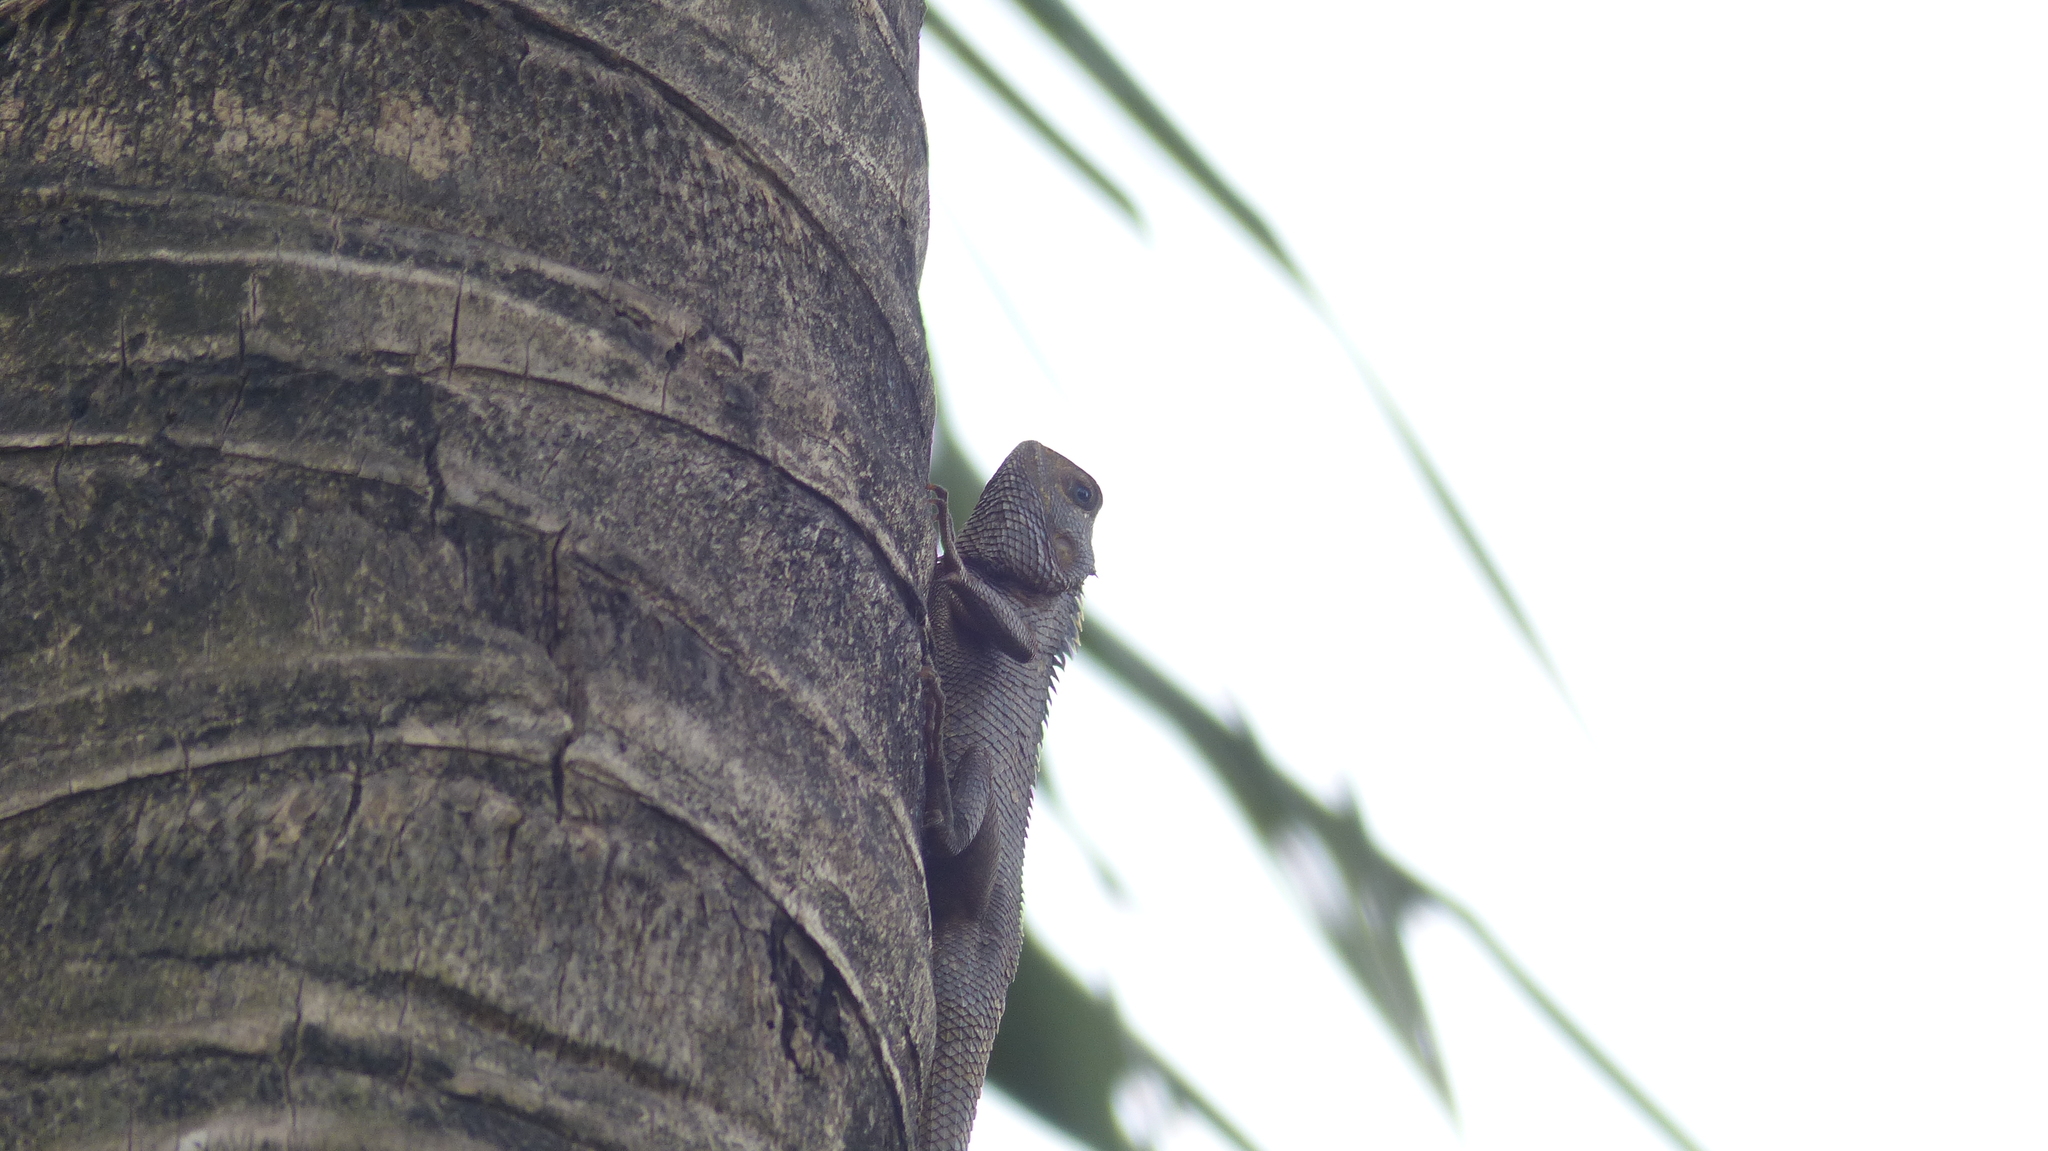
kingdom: Animalia
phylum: Chordata
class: Squamata
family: Agamidae
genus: Calotes
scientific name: Calotes versicolor
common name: Oriental garden lizard
